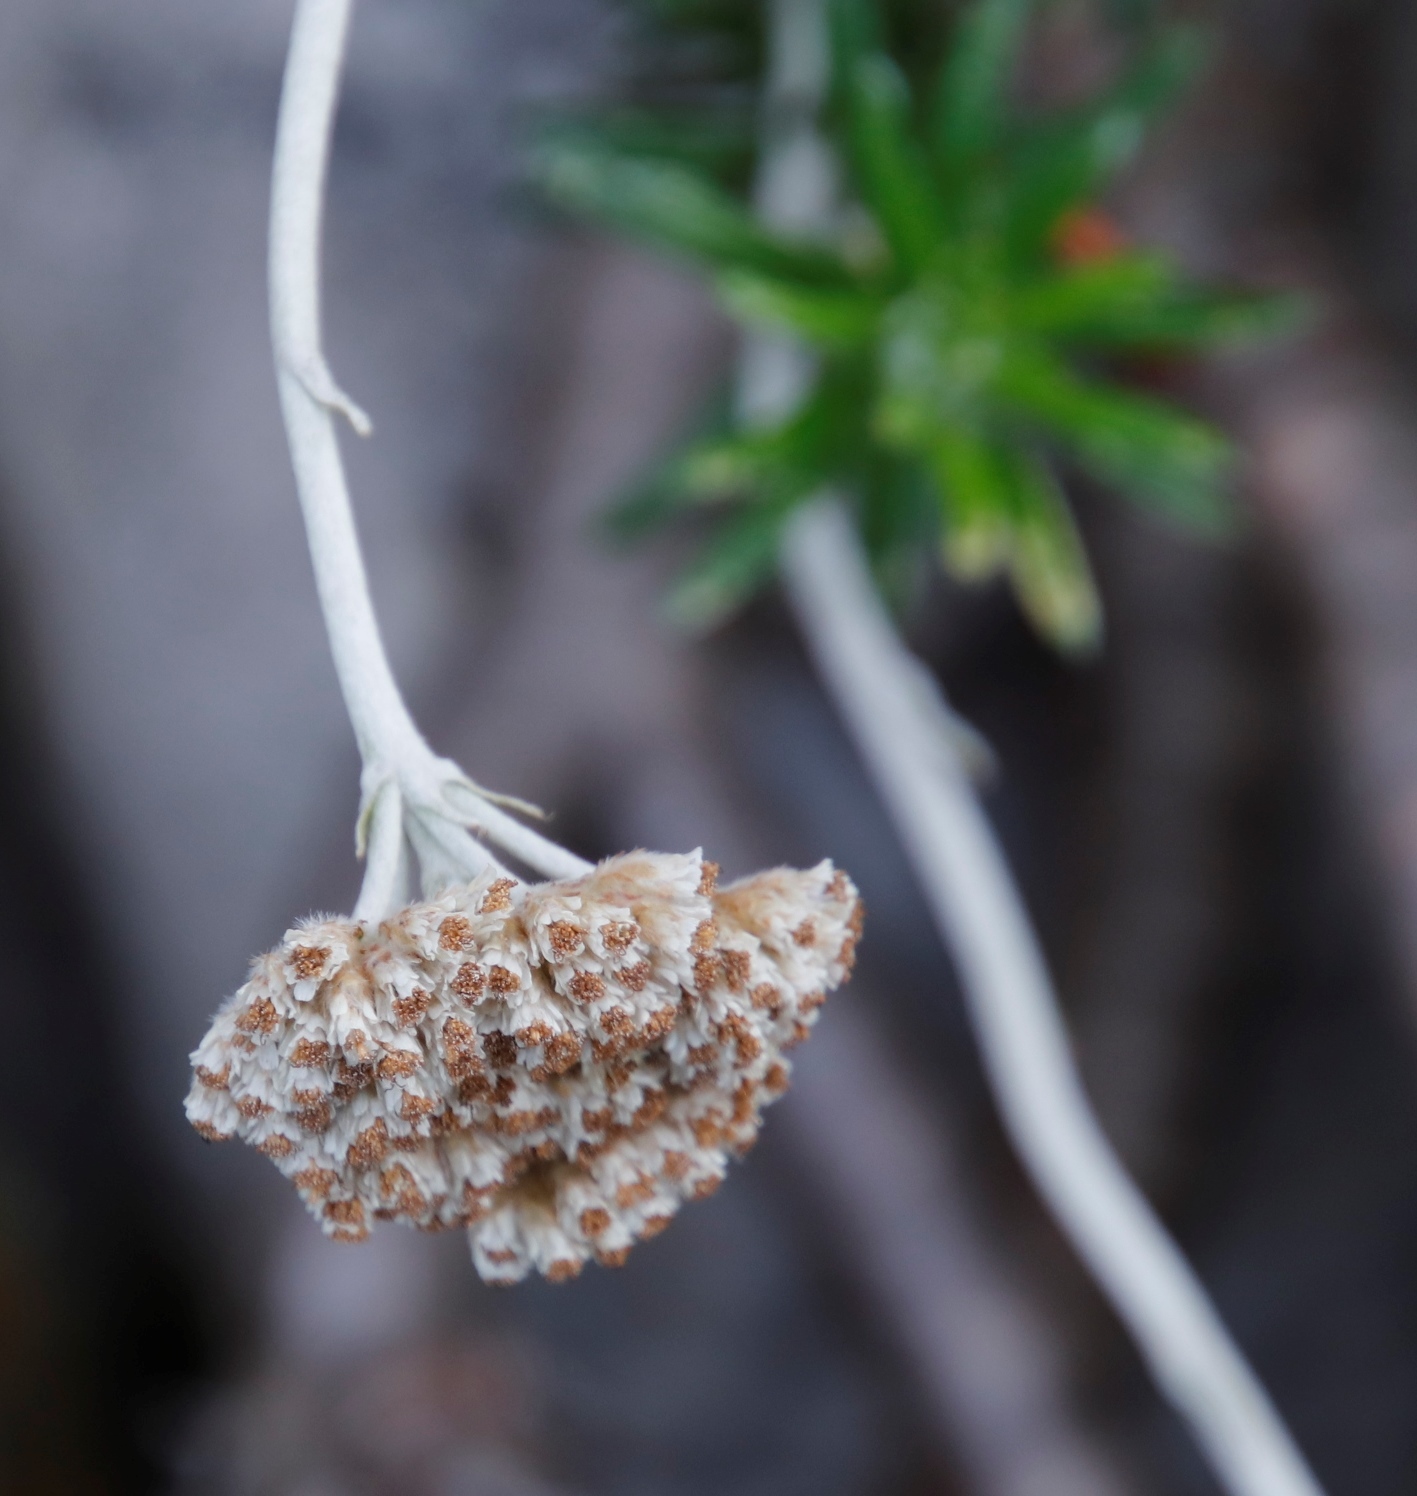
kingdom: Plantae
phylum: Tracheophyta
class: Magnoliopsida
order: Asterales
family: Asteraceae
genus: Anaxeton
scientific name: Anaxeton laeve
